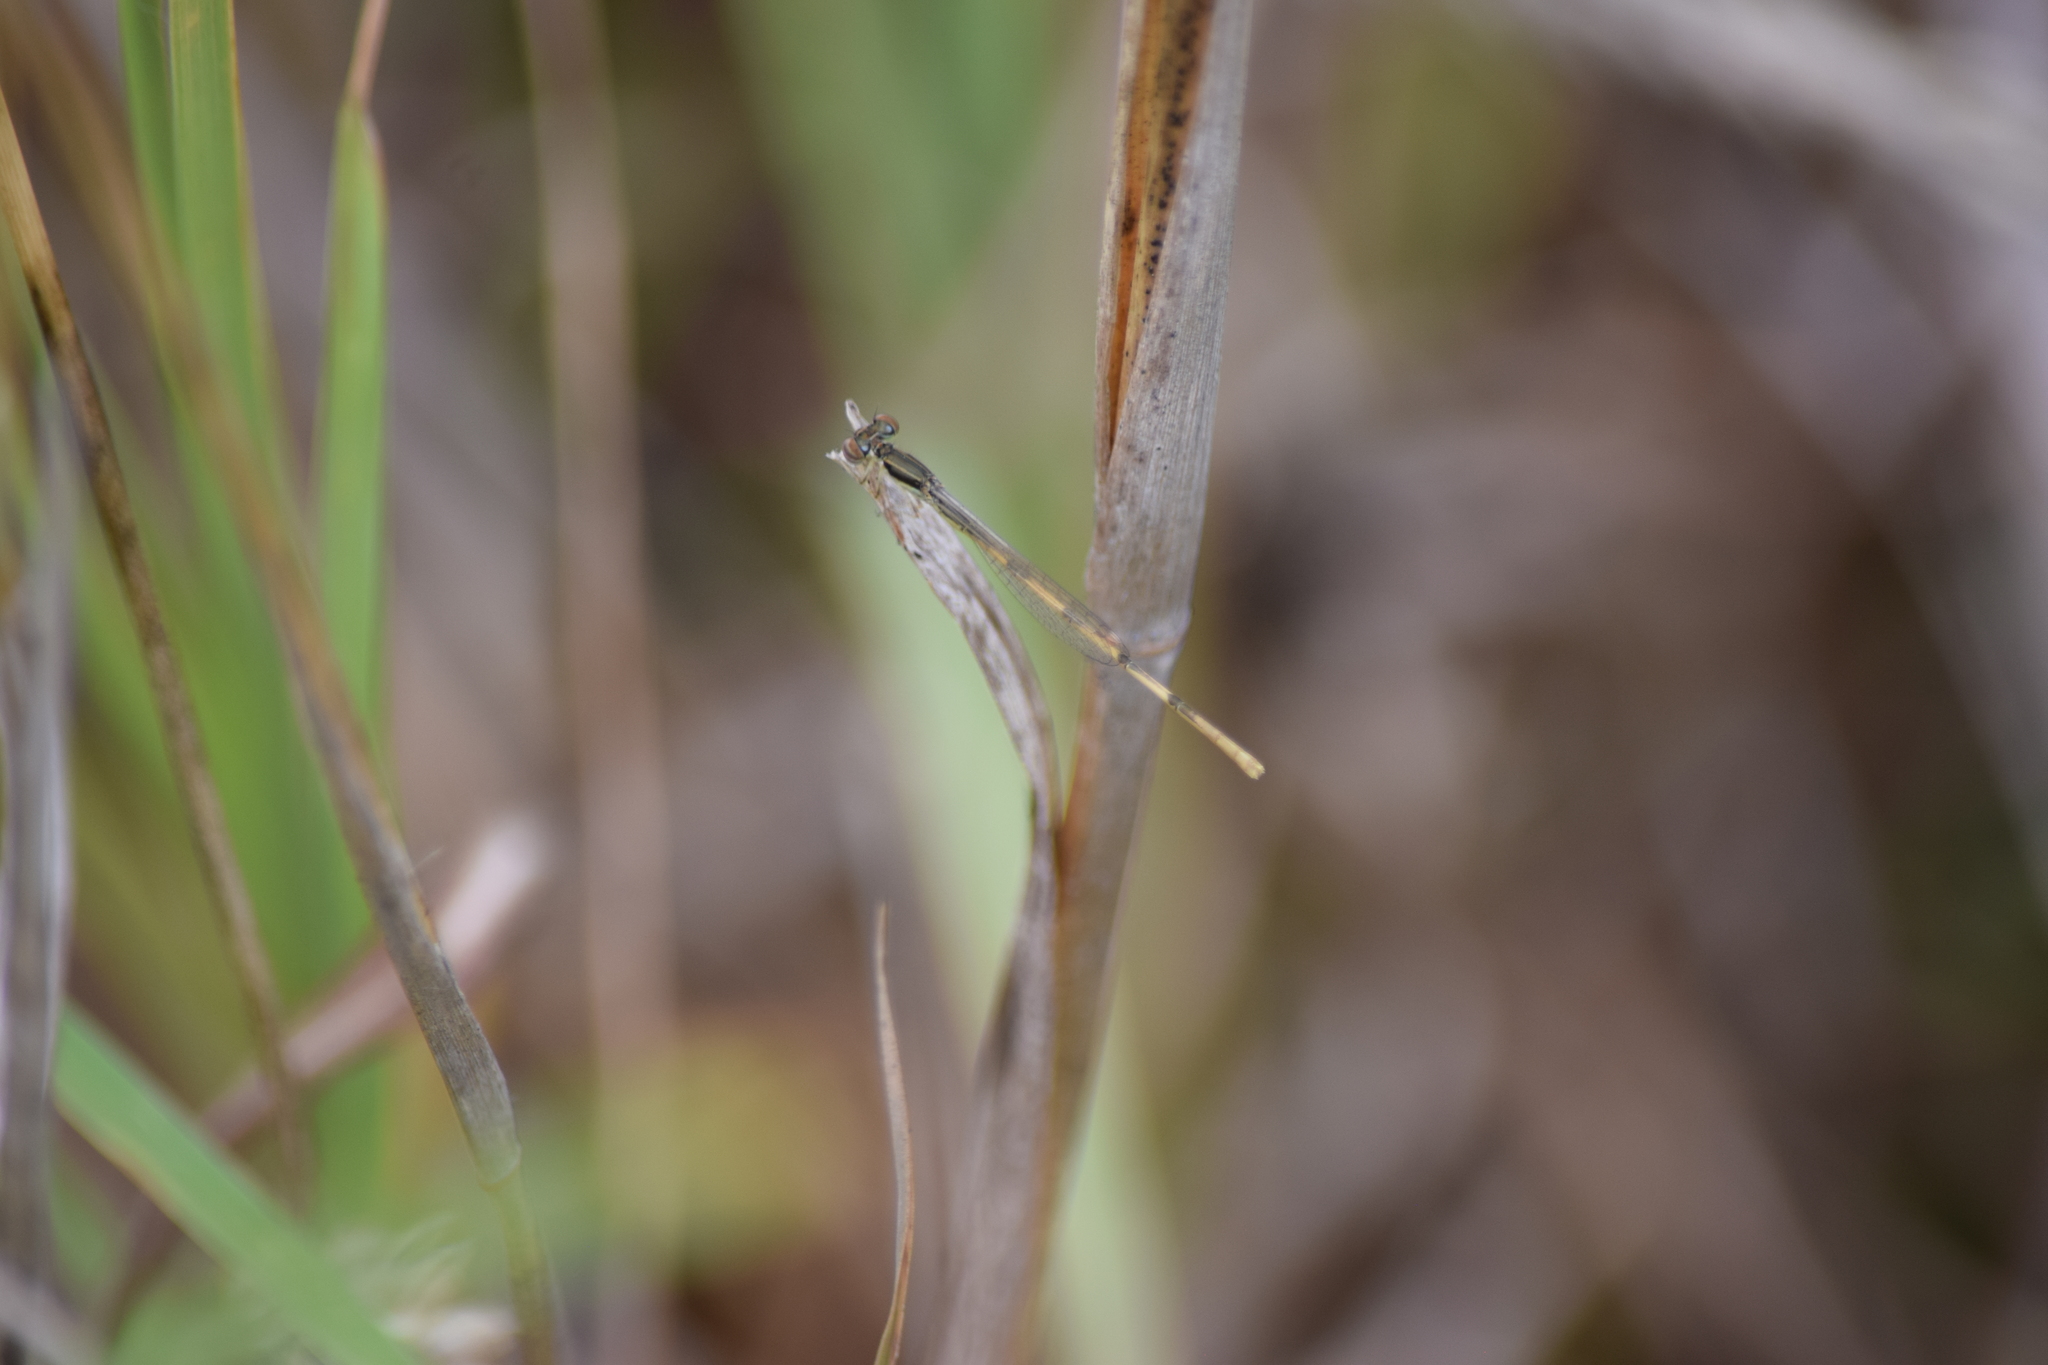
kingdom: Animalia
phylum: Arthropoda
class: Insecta
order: Odonata
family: Coenagrionidae
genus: Ischnura
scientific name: Ischnura hastata
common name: Citrine forktail
